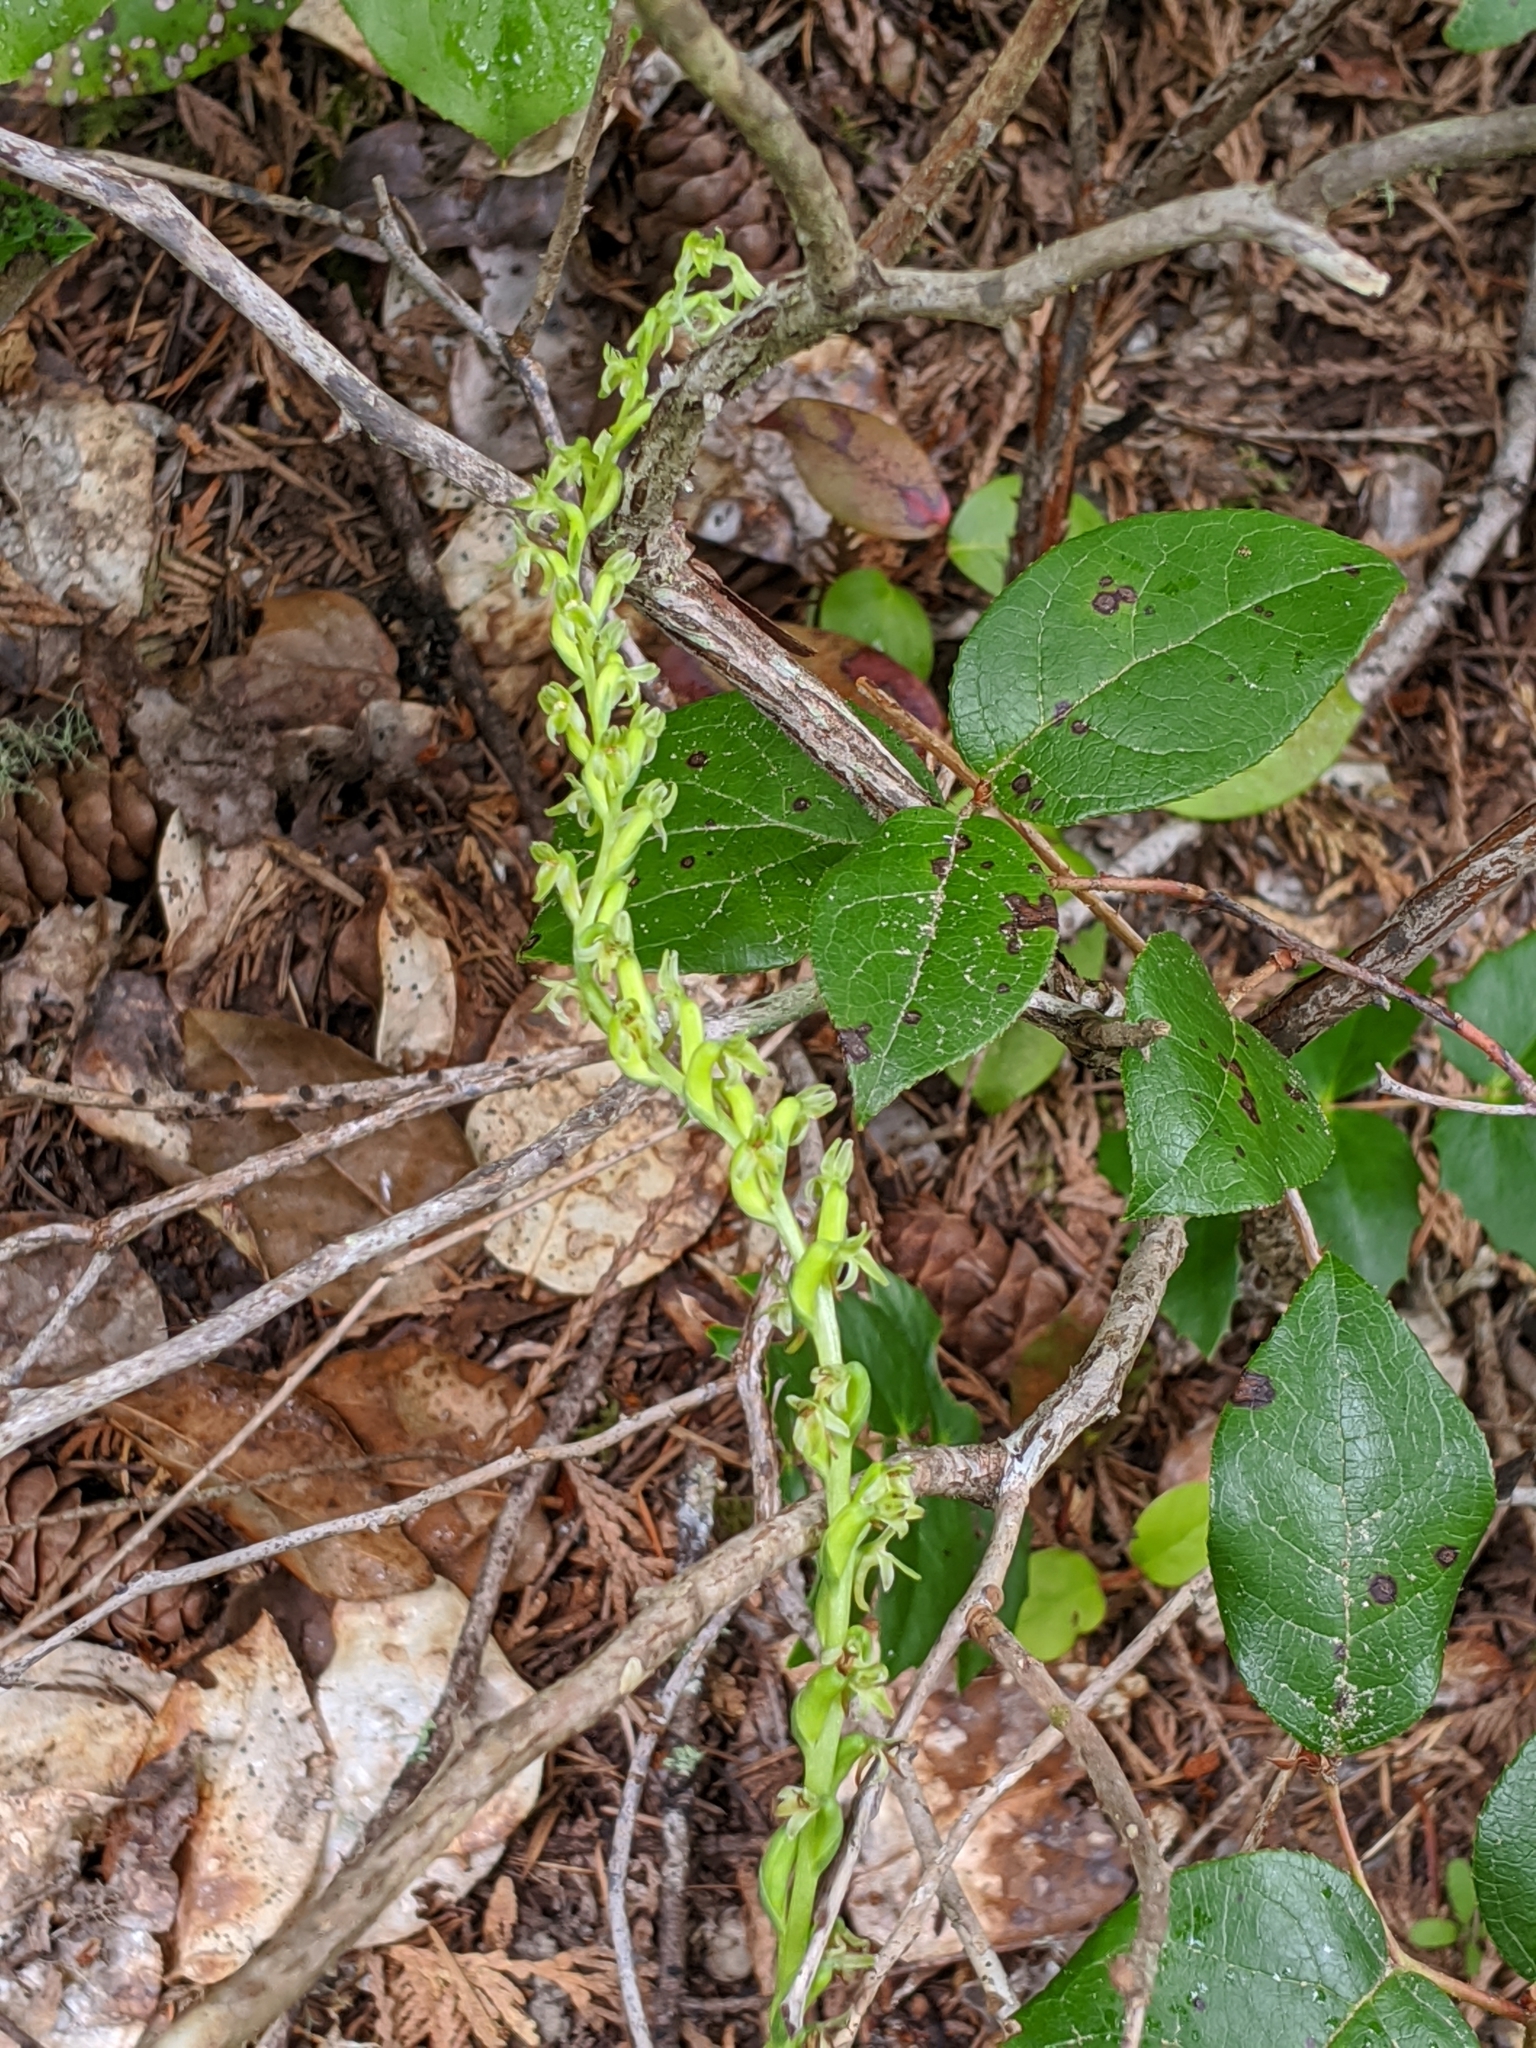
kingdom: Plantae
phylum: Tracheophyta
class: Liliopsida
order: Asparagales
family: Orchidaceae
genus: Platanthera
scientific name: Platanthera unalascensis
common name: Alaska bog orchid
